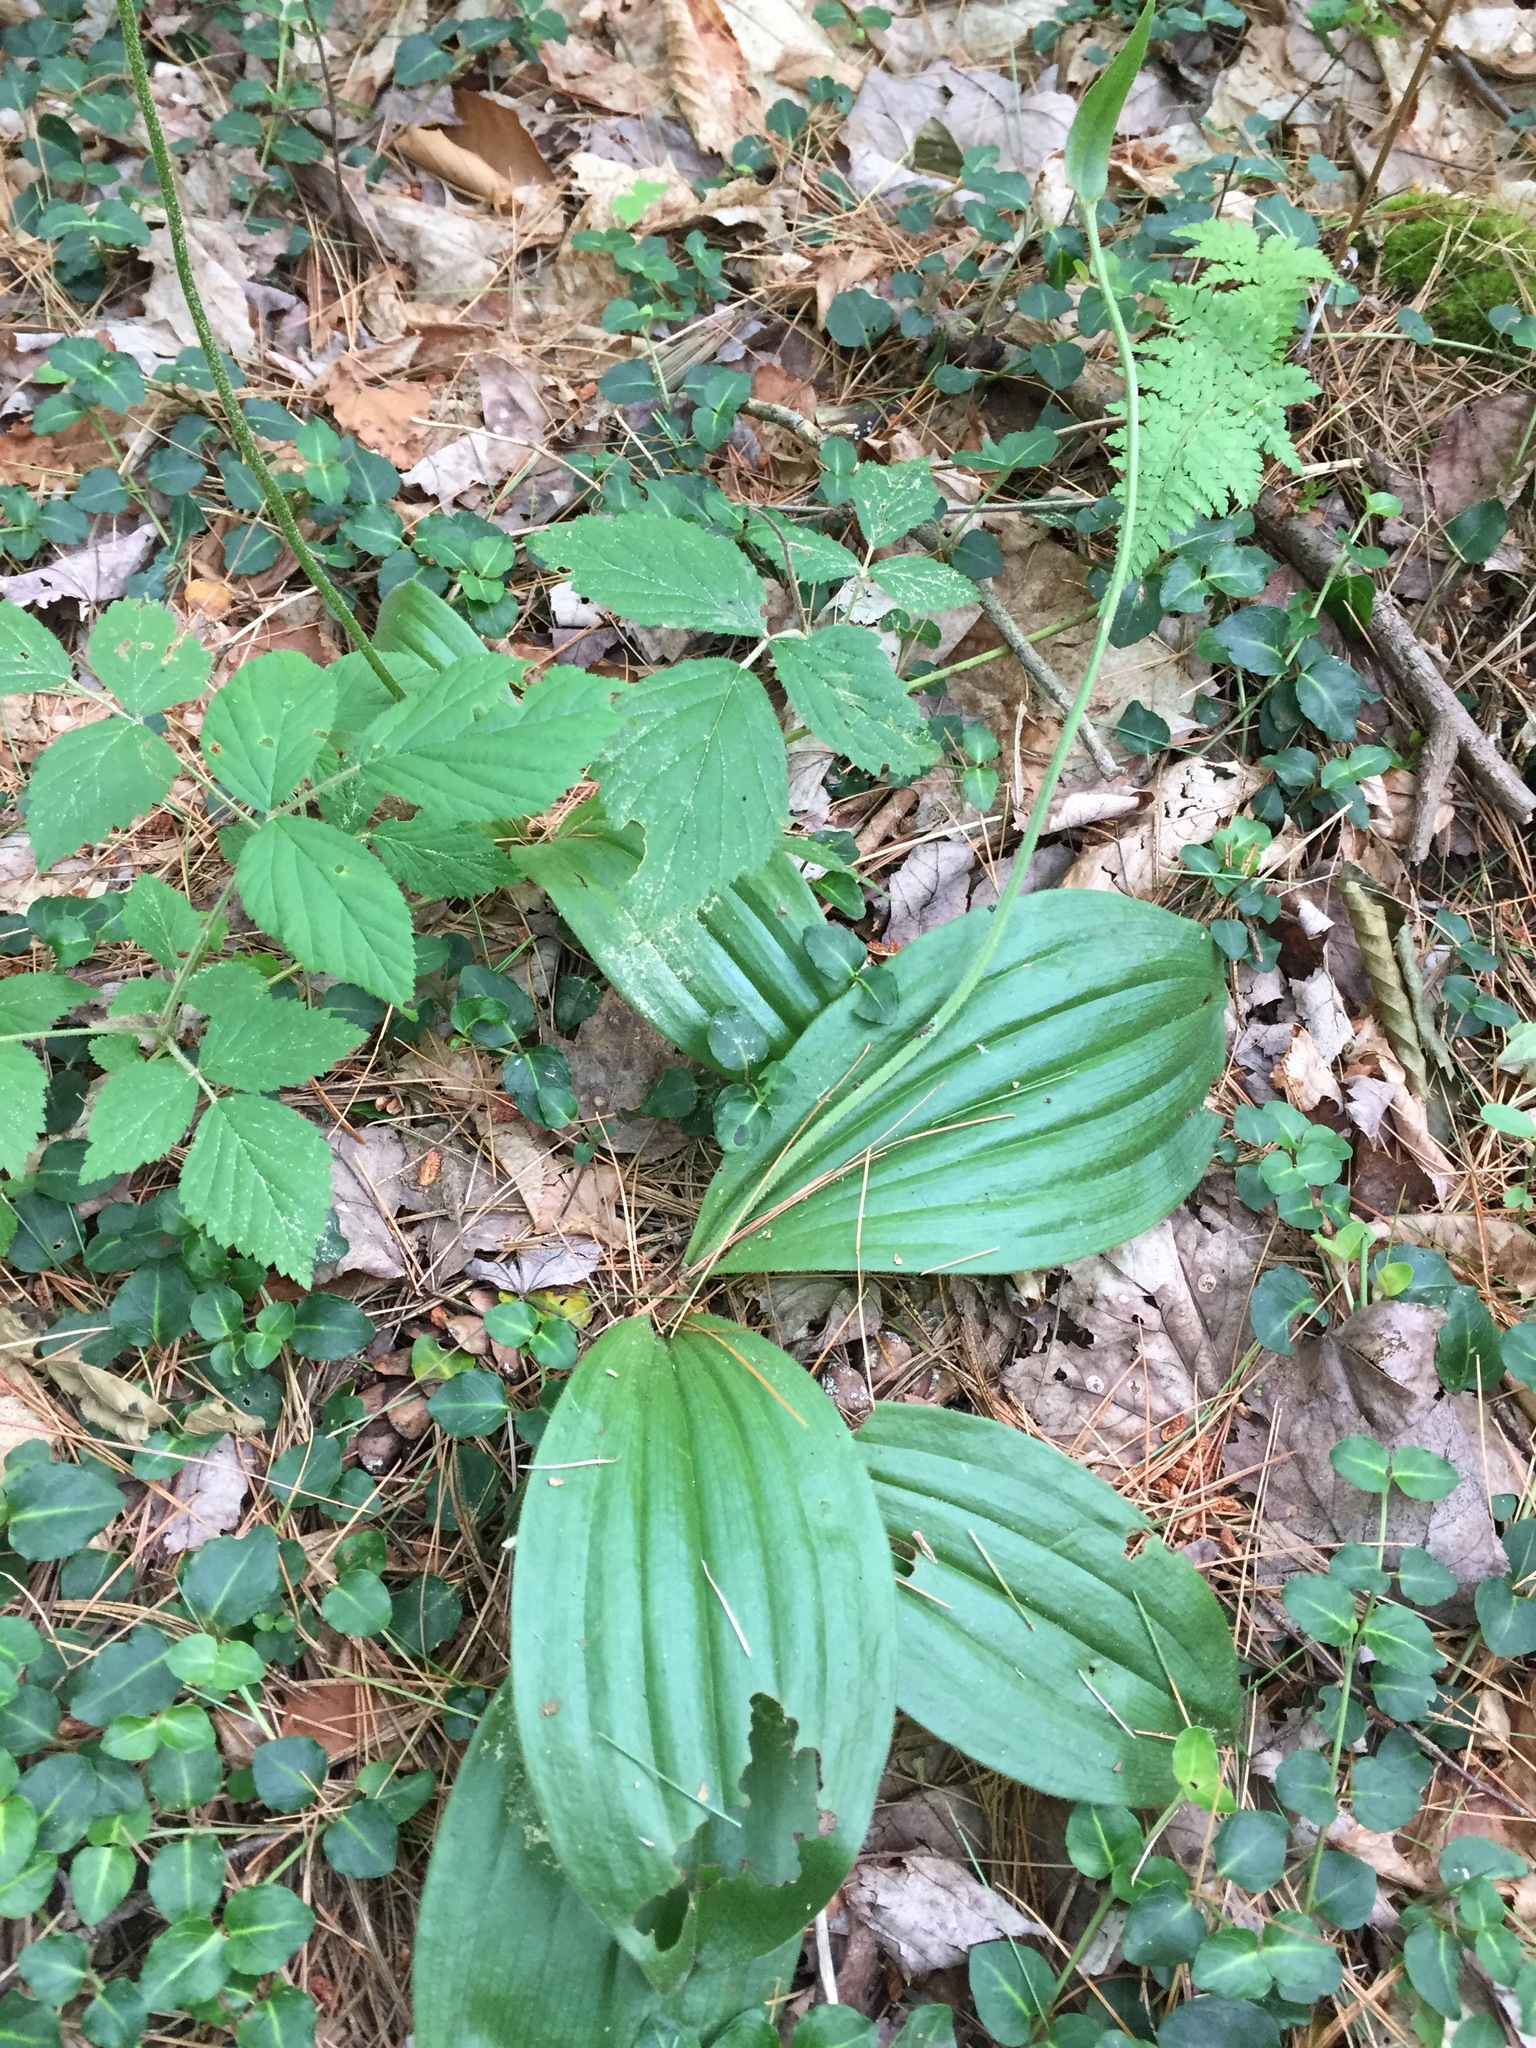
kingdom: Plantae
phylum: Tracheophyta
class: Liliopsida
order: Asparagales
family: Orchidaceae
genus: Cypripedium
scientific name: Cypripedium acaule
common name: Pink lady's-slipper
